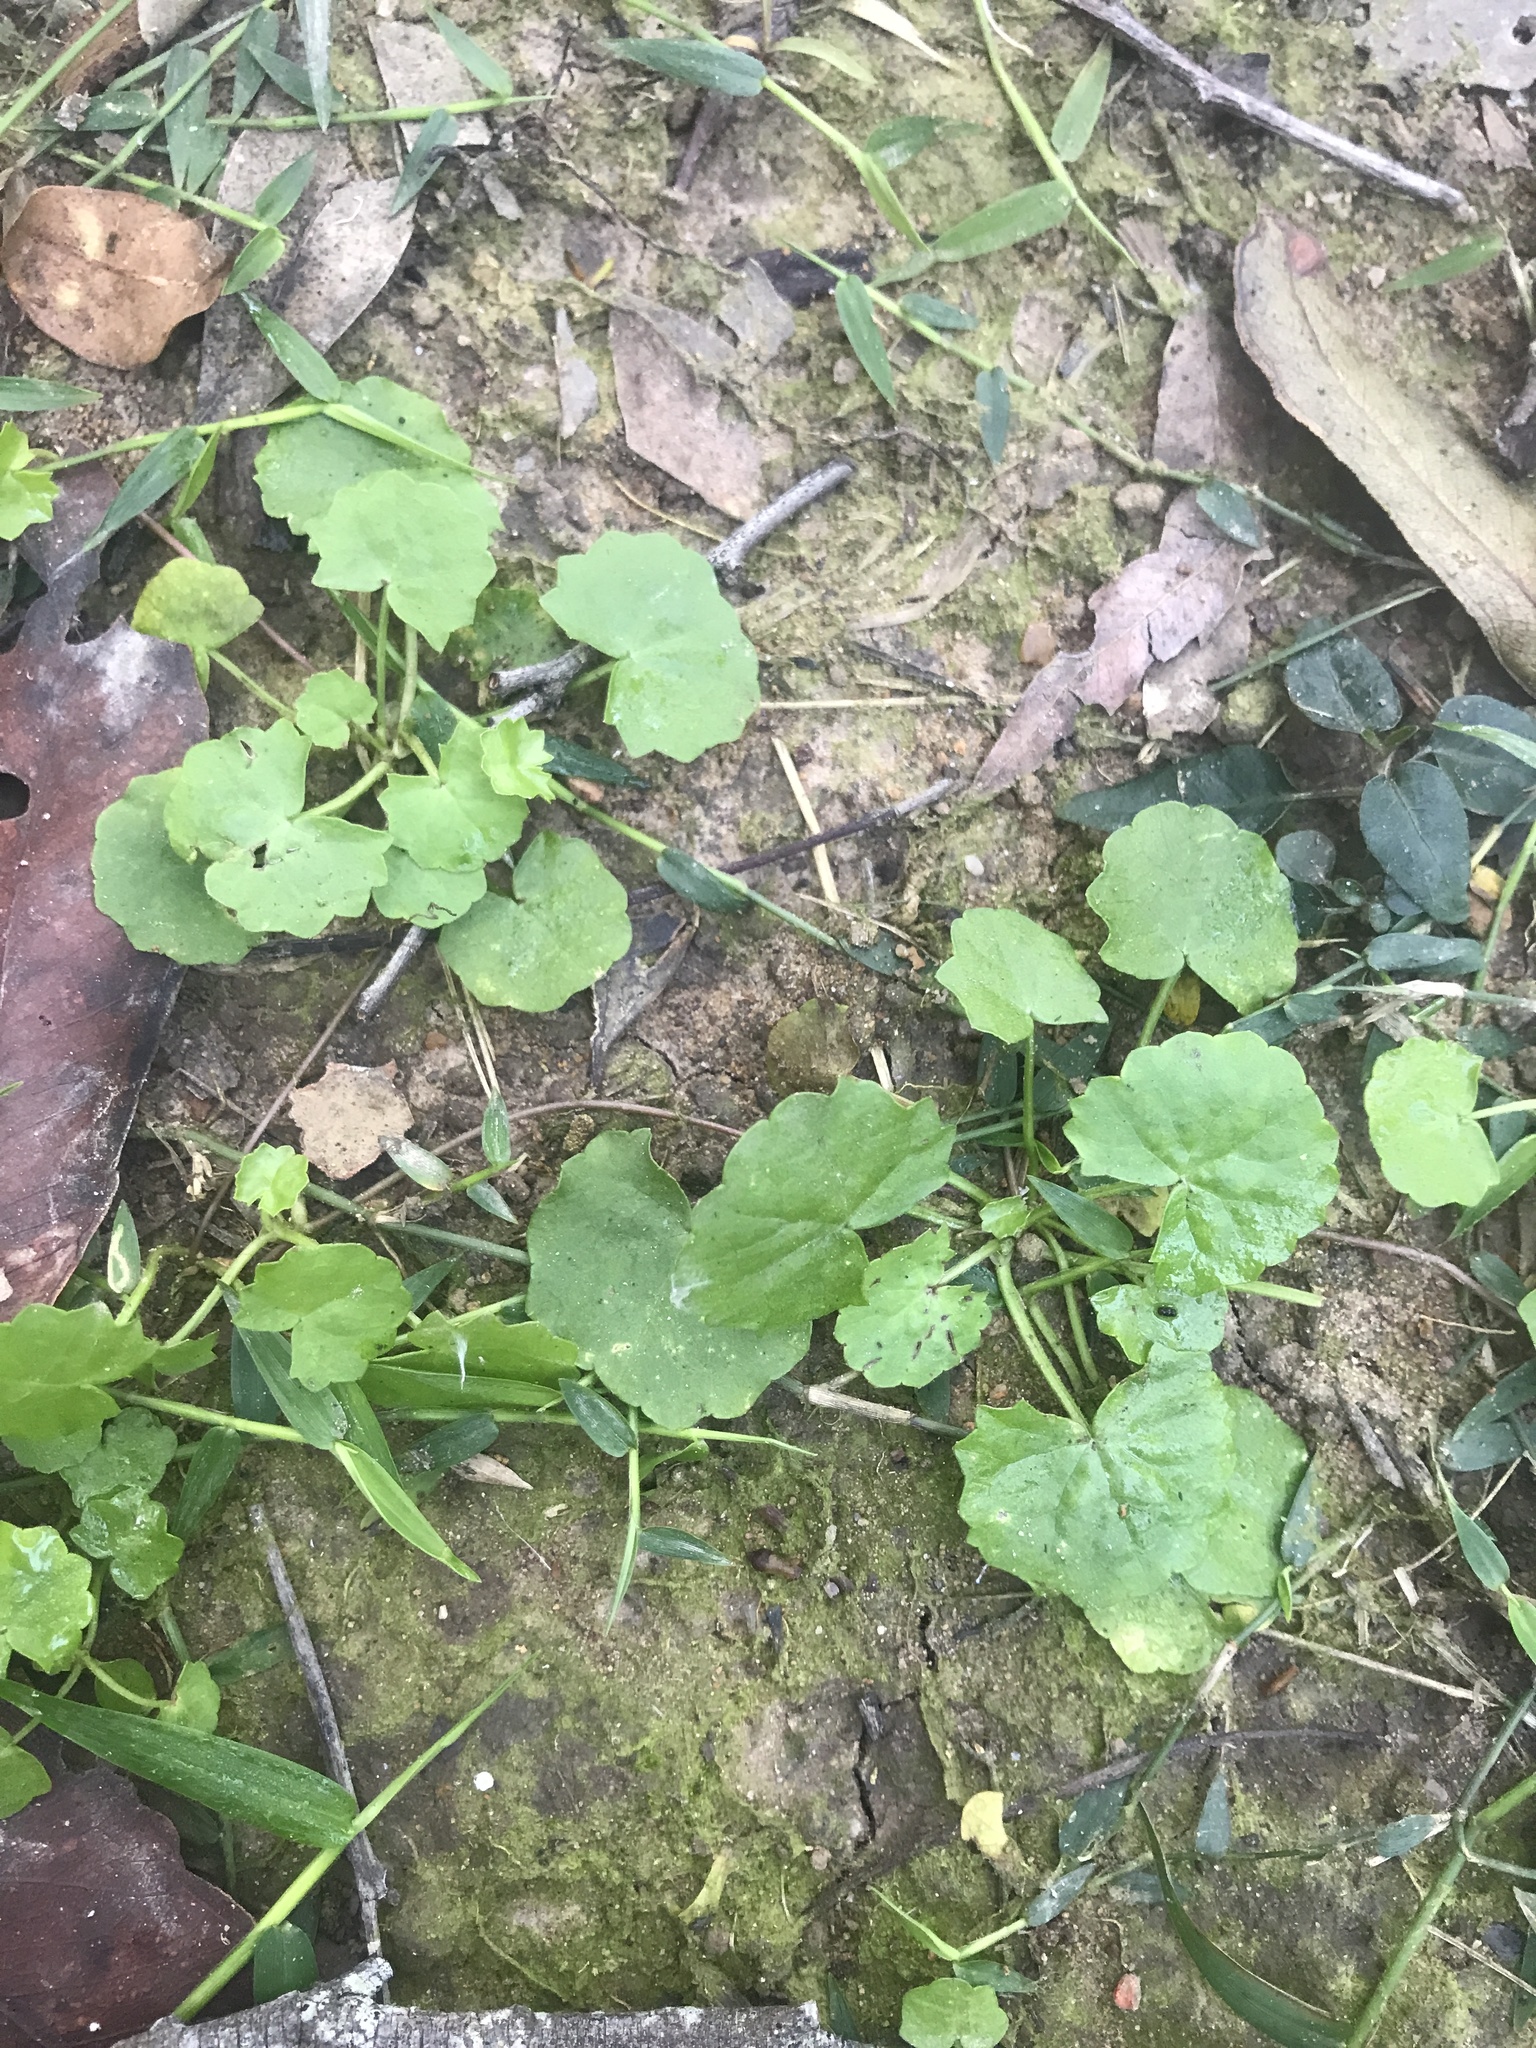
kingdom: Plantae
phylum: Tracheophyta
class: Magnoliopsida
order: Apiales
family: Apiaceae
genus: Centella
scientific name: Centella asiatica
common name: Spadeleaf
